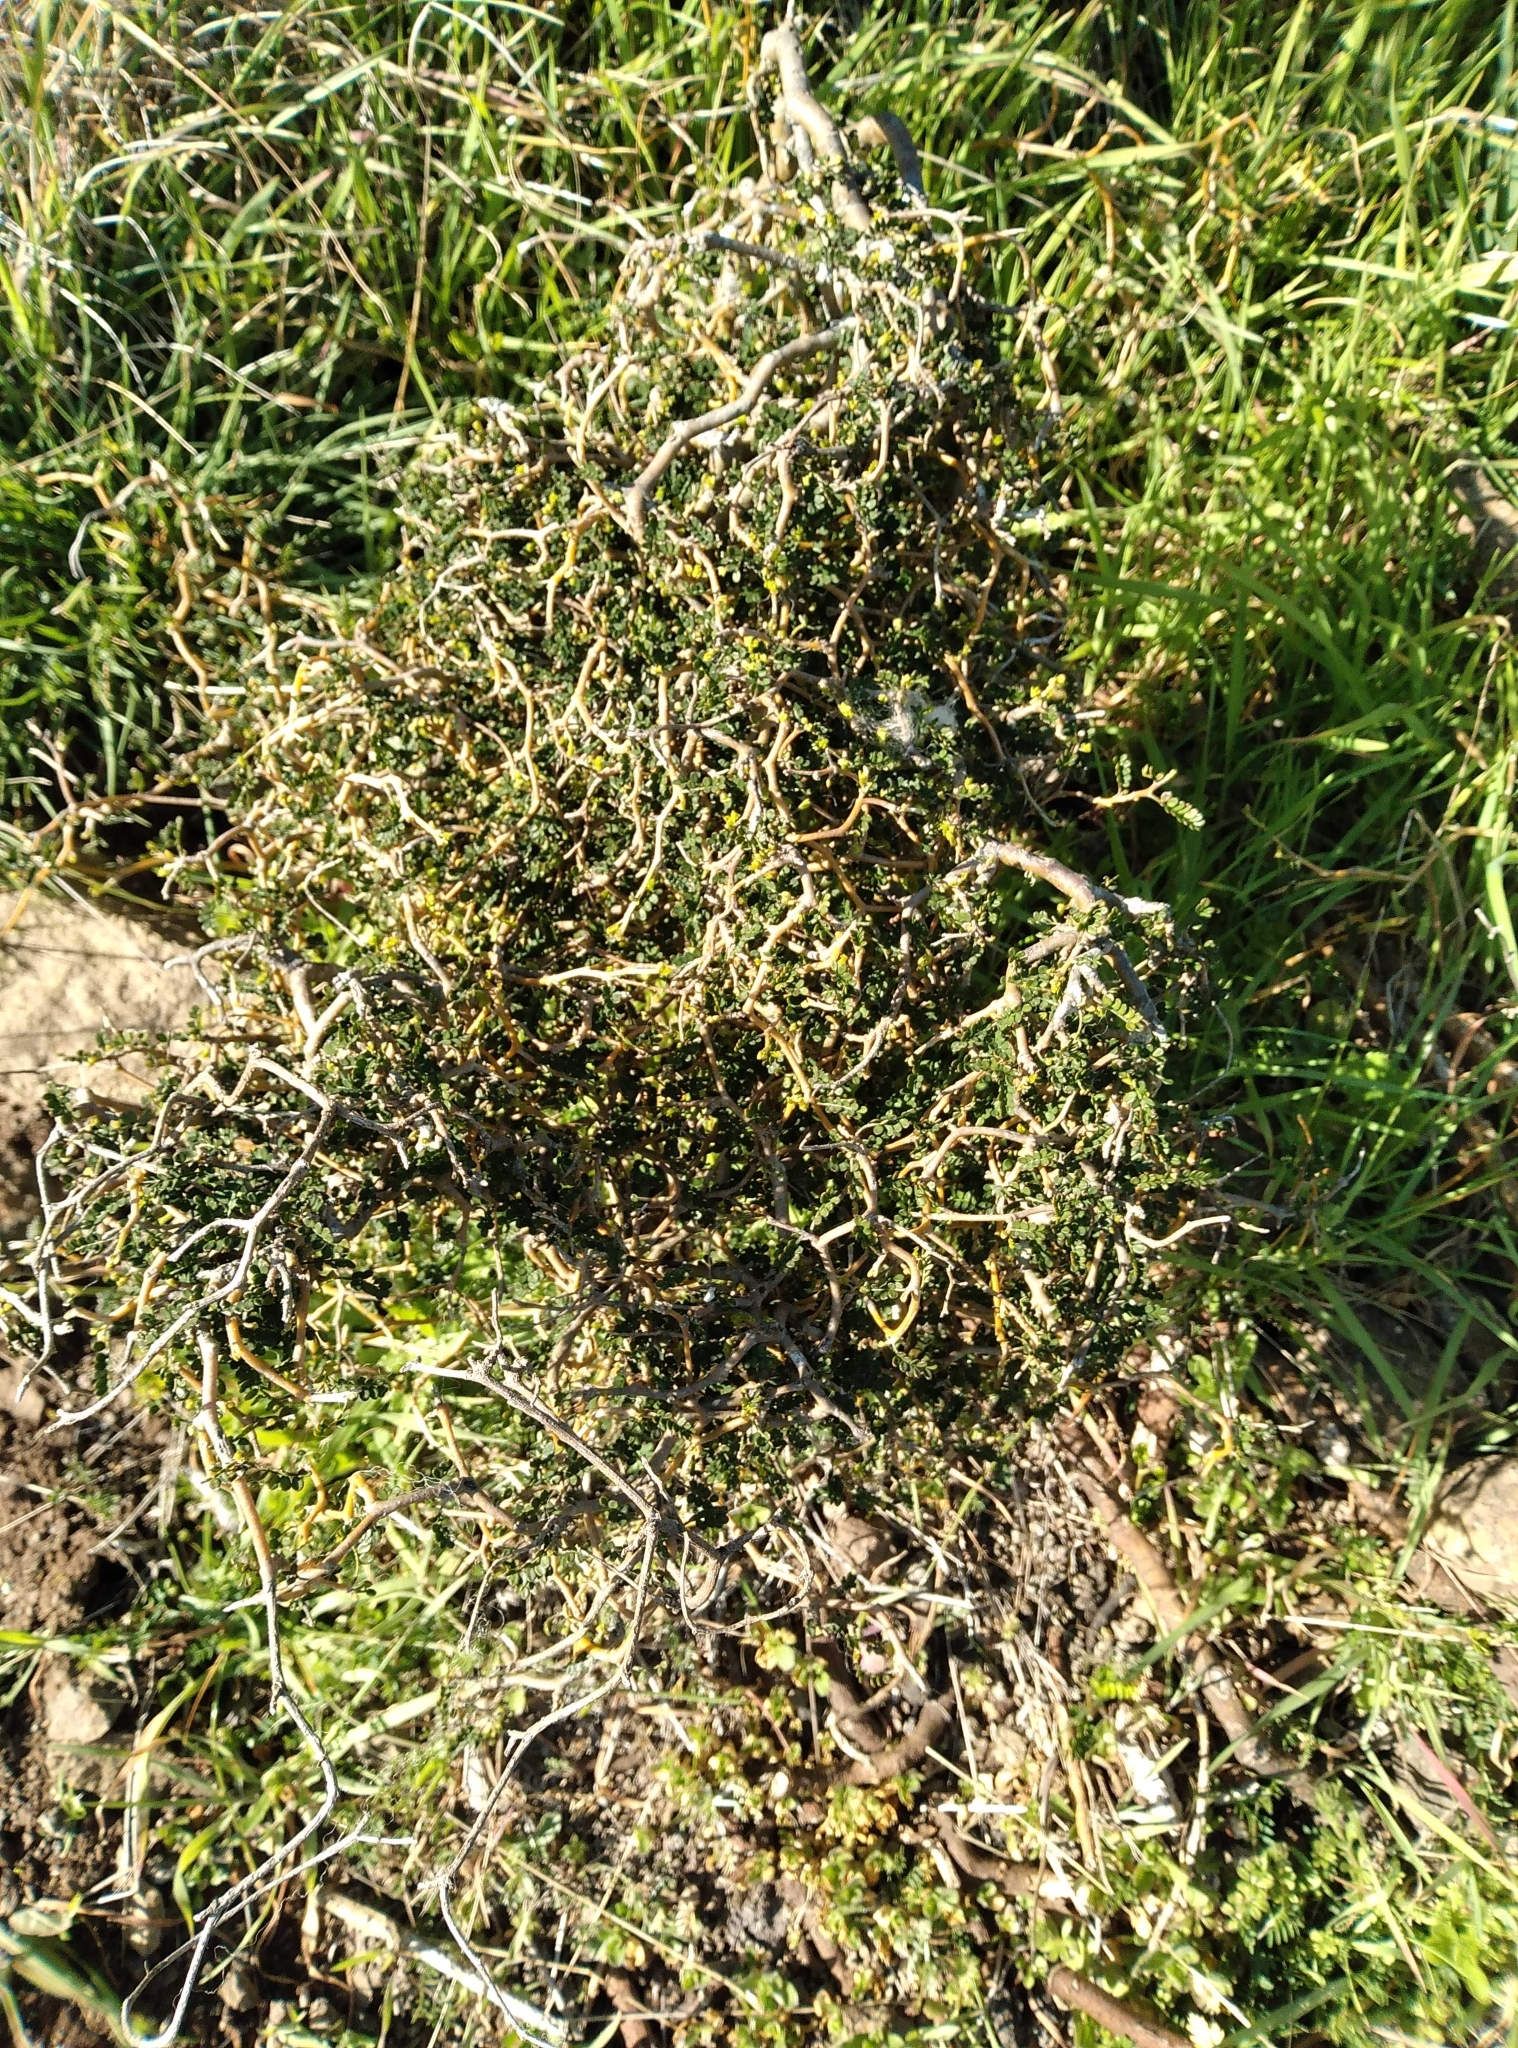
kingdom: Plantae
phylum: Tracheophyta
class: Magnoliopsida
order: Fabales
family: Fabaceae
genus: Sophora
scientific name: Sophora prostrata
